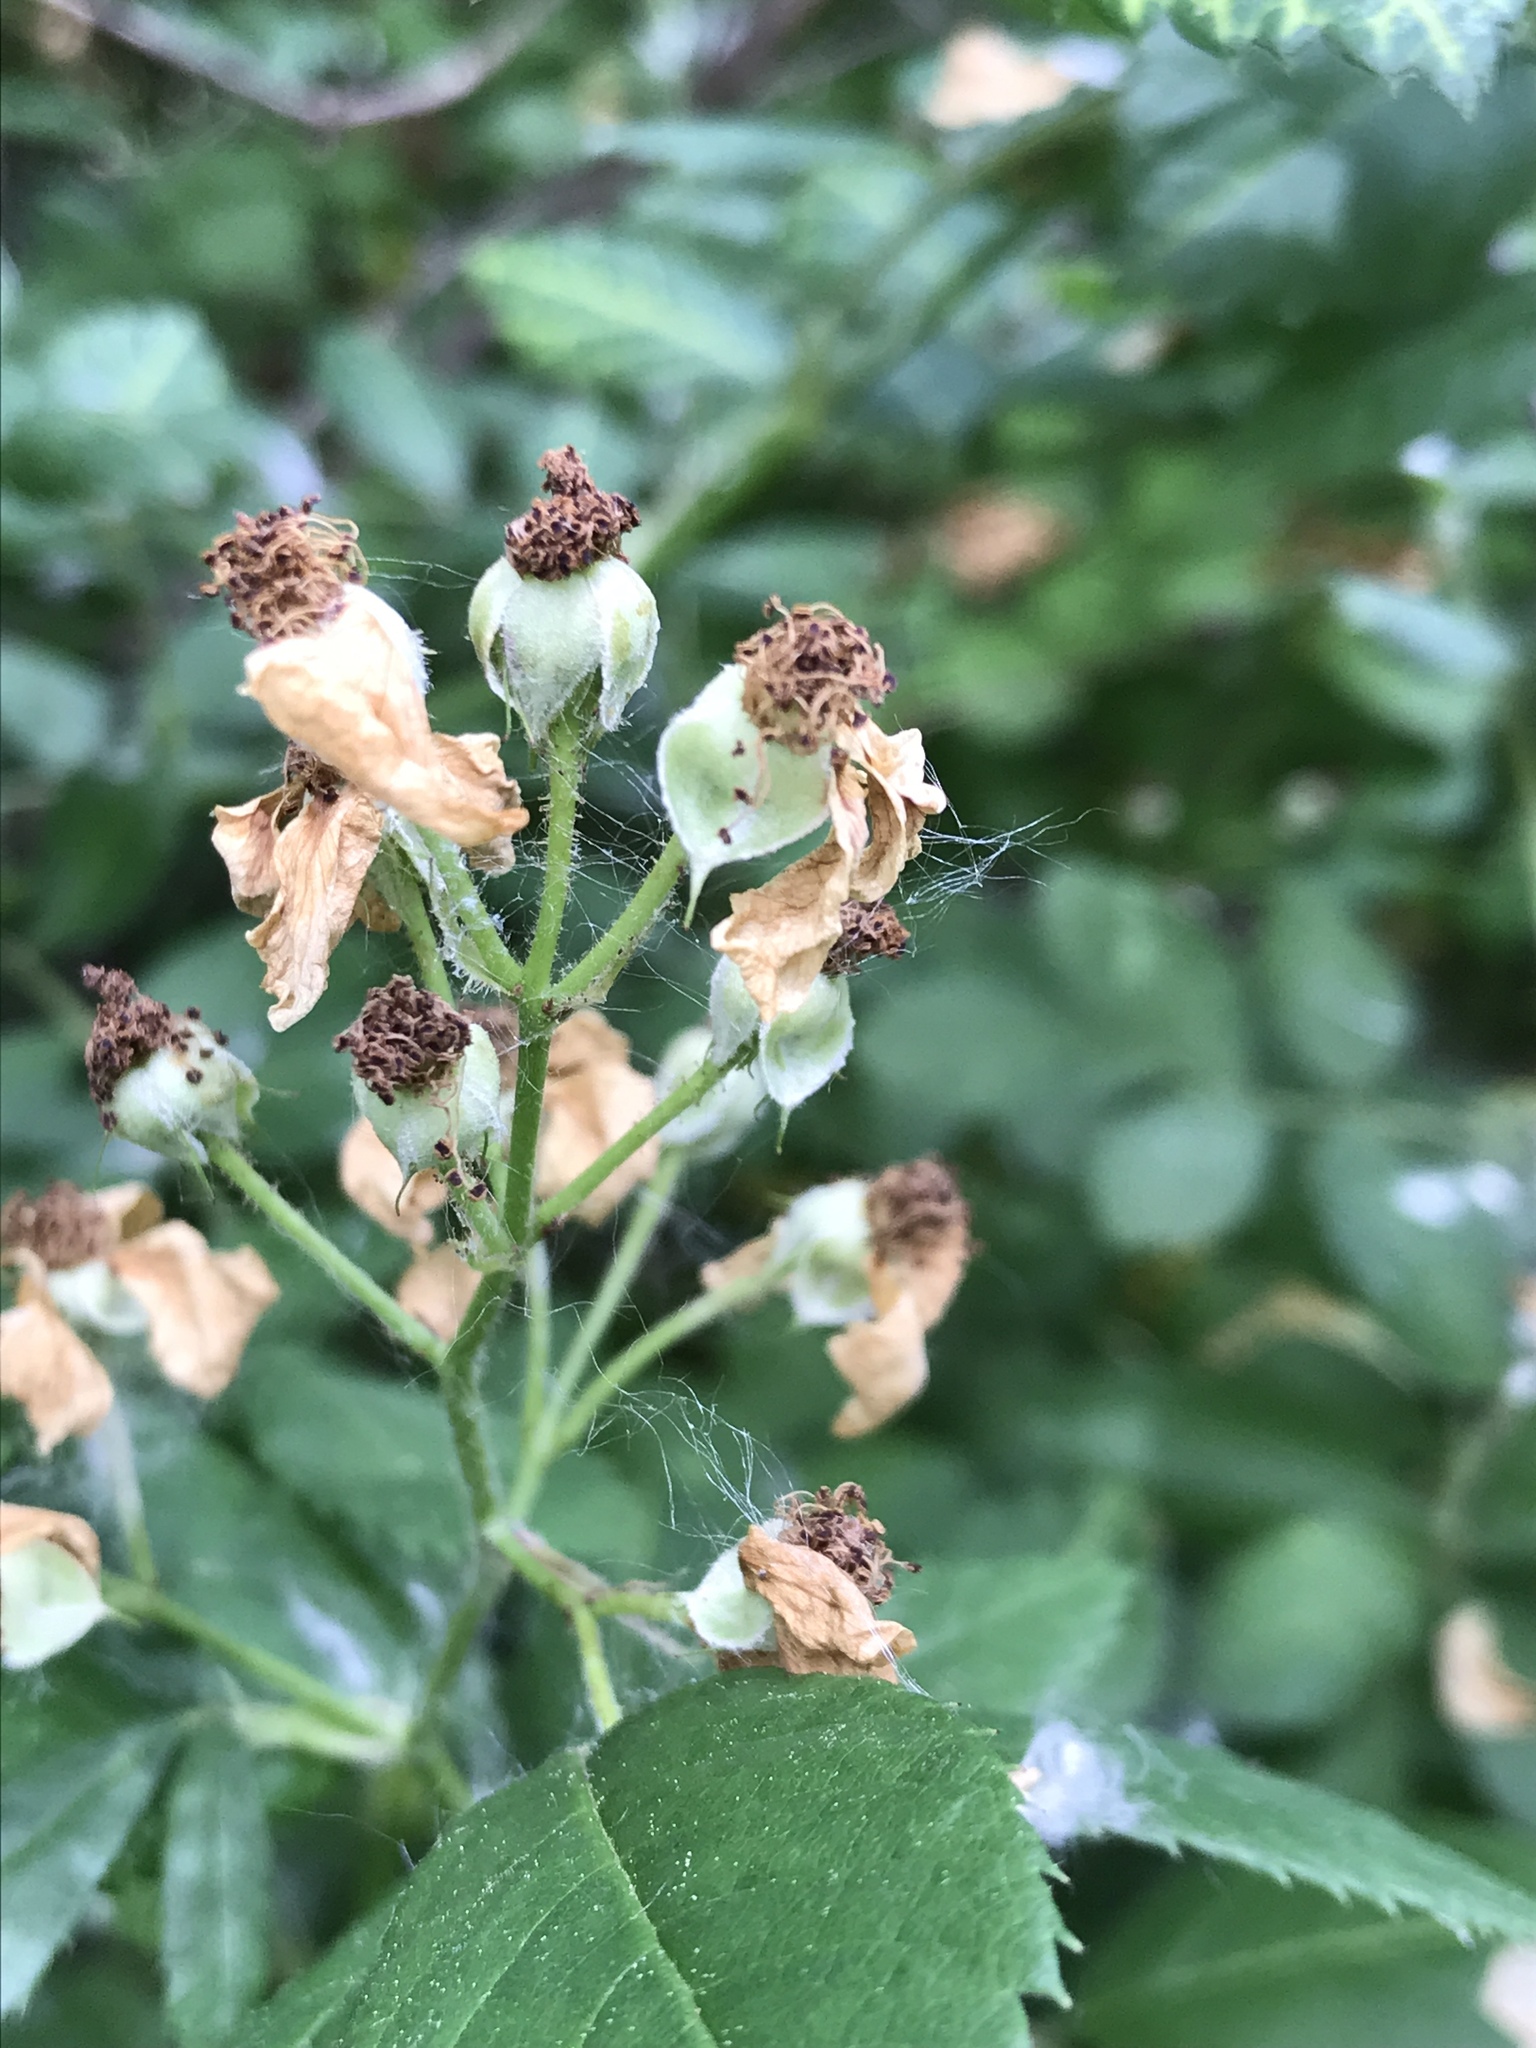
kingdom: Plantae
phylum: Tracheophyta
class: Magnoliopsida
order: Rosales
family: Rosaceae
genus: Rosa
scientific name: Rosa multiflora
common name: Multiflora rose
